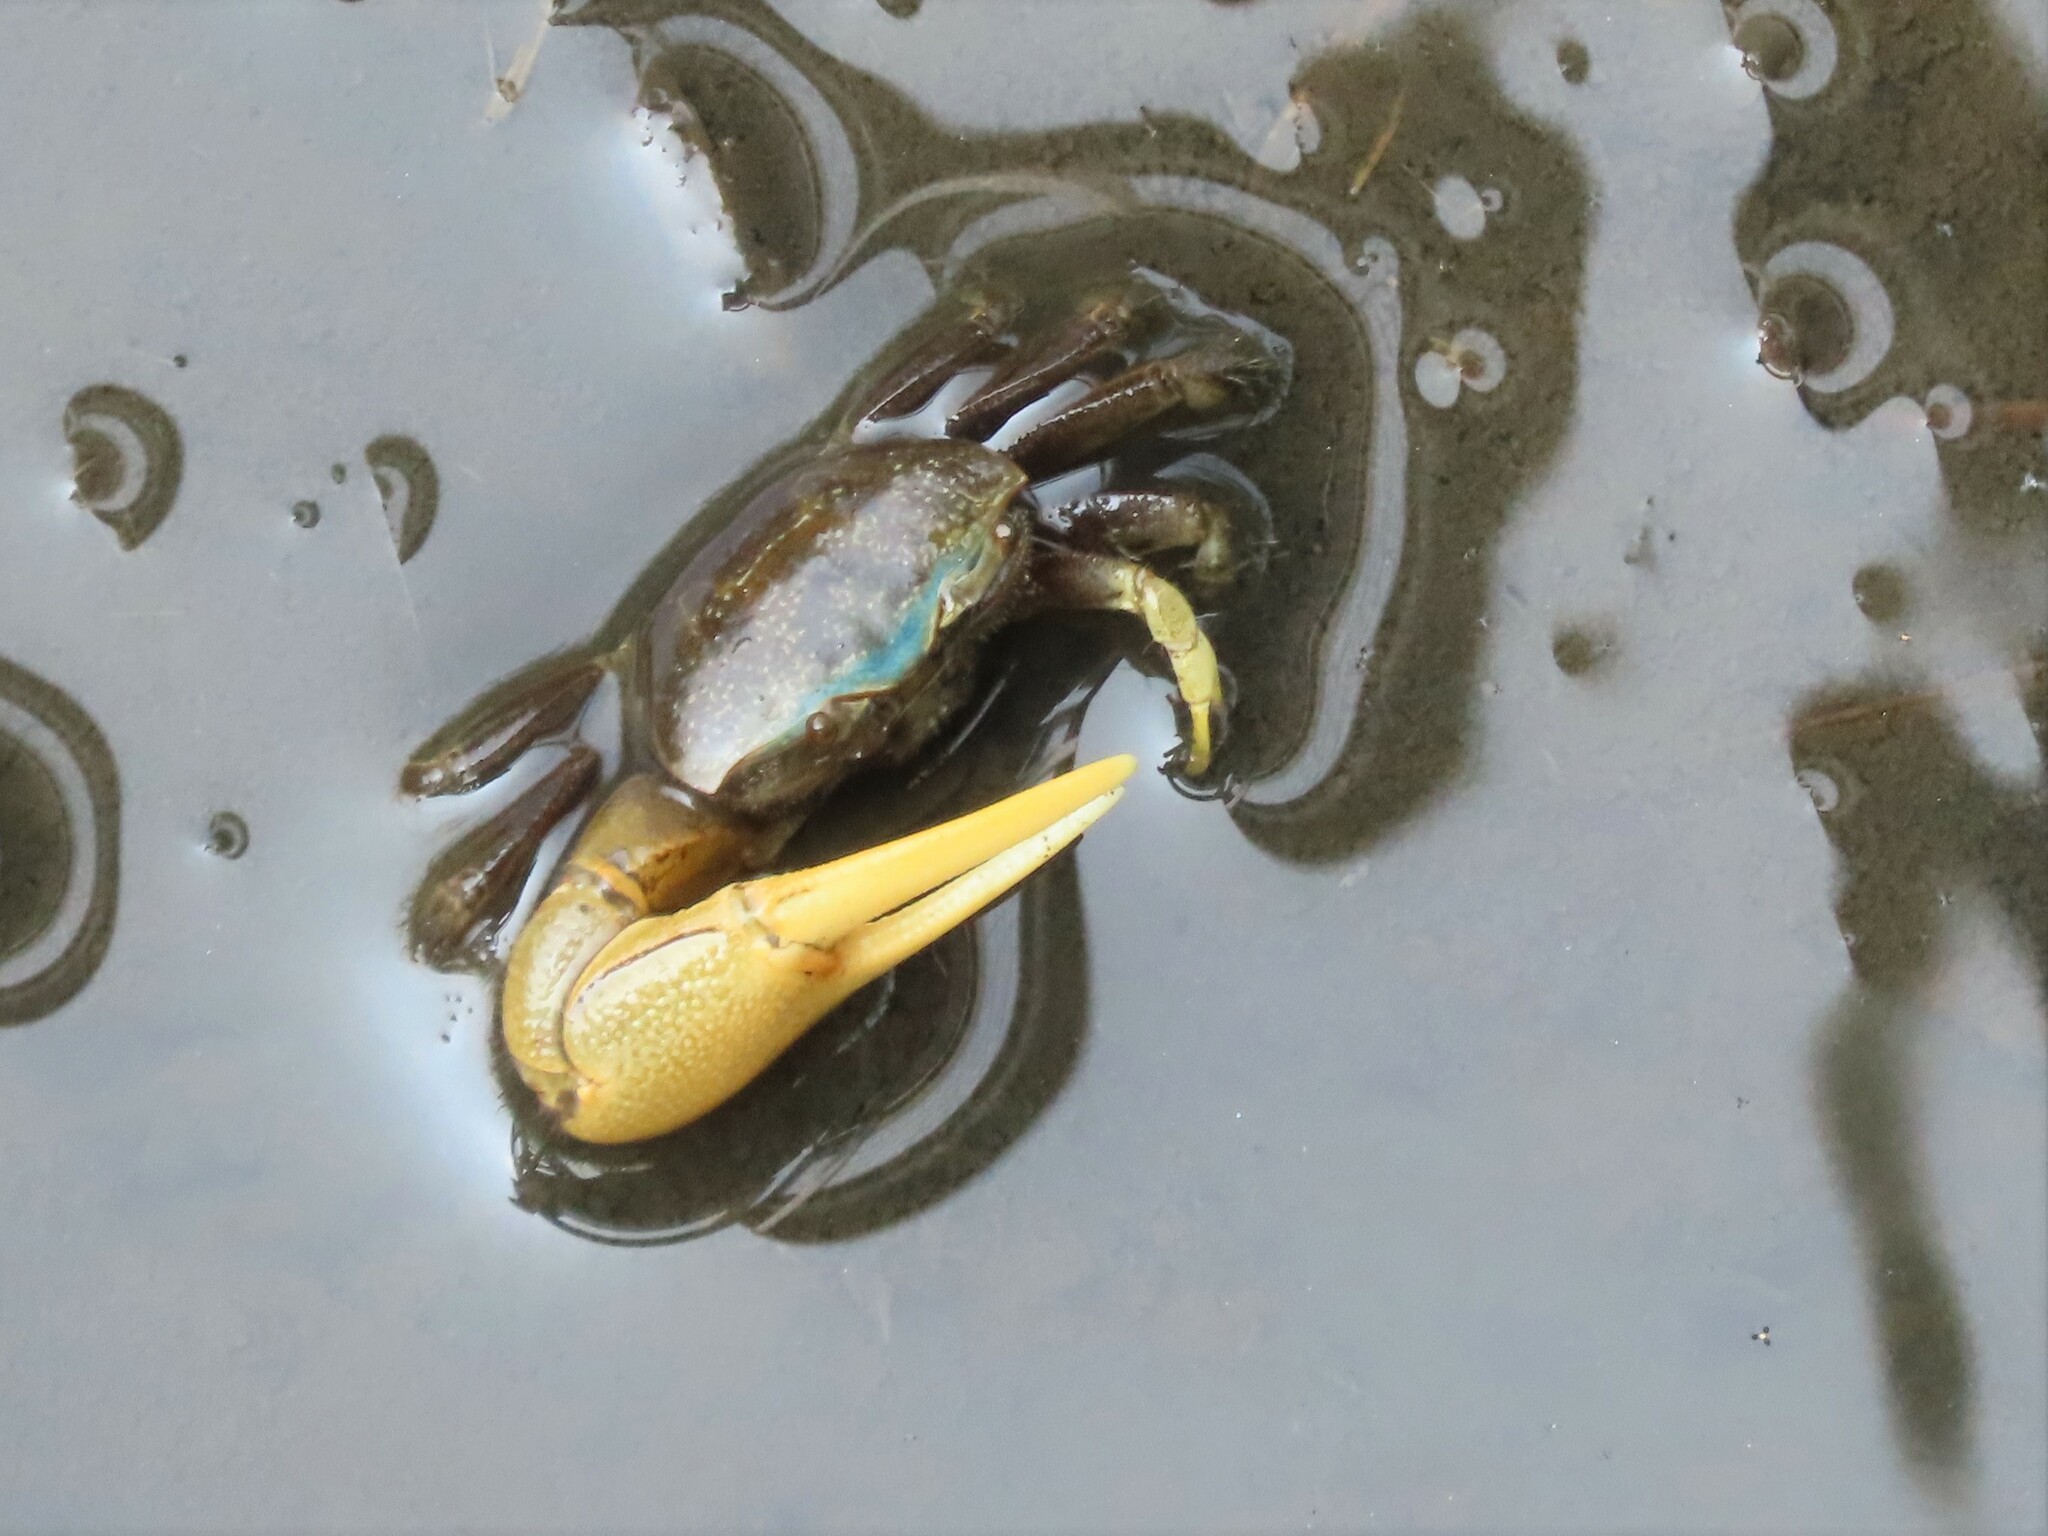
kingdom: Animalia
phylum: Arthropoda
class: Malacostraca
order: Decapoda
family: Ocypodidae
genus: Minuca
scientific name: Minuca pugnax
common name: Mud fiddler crab
